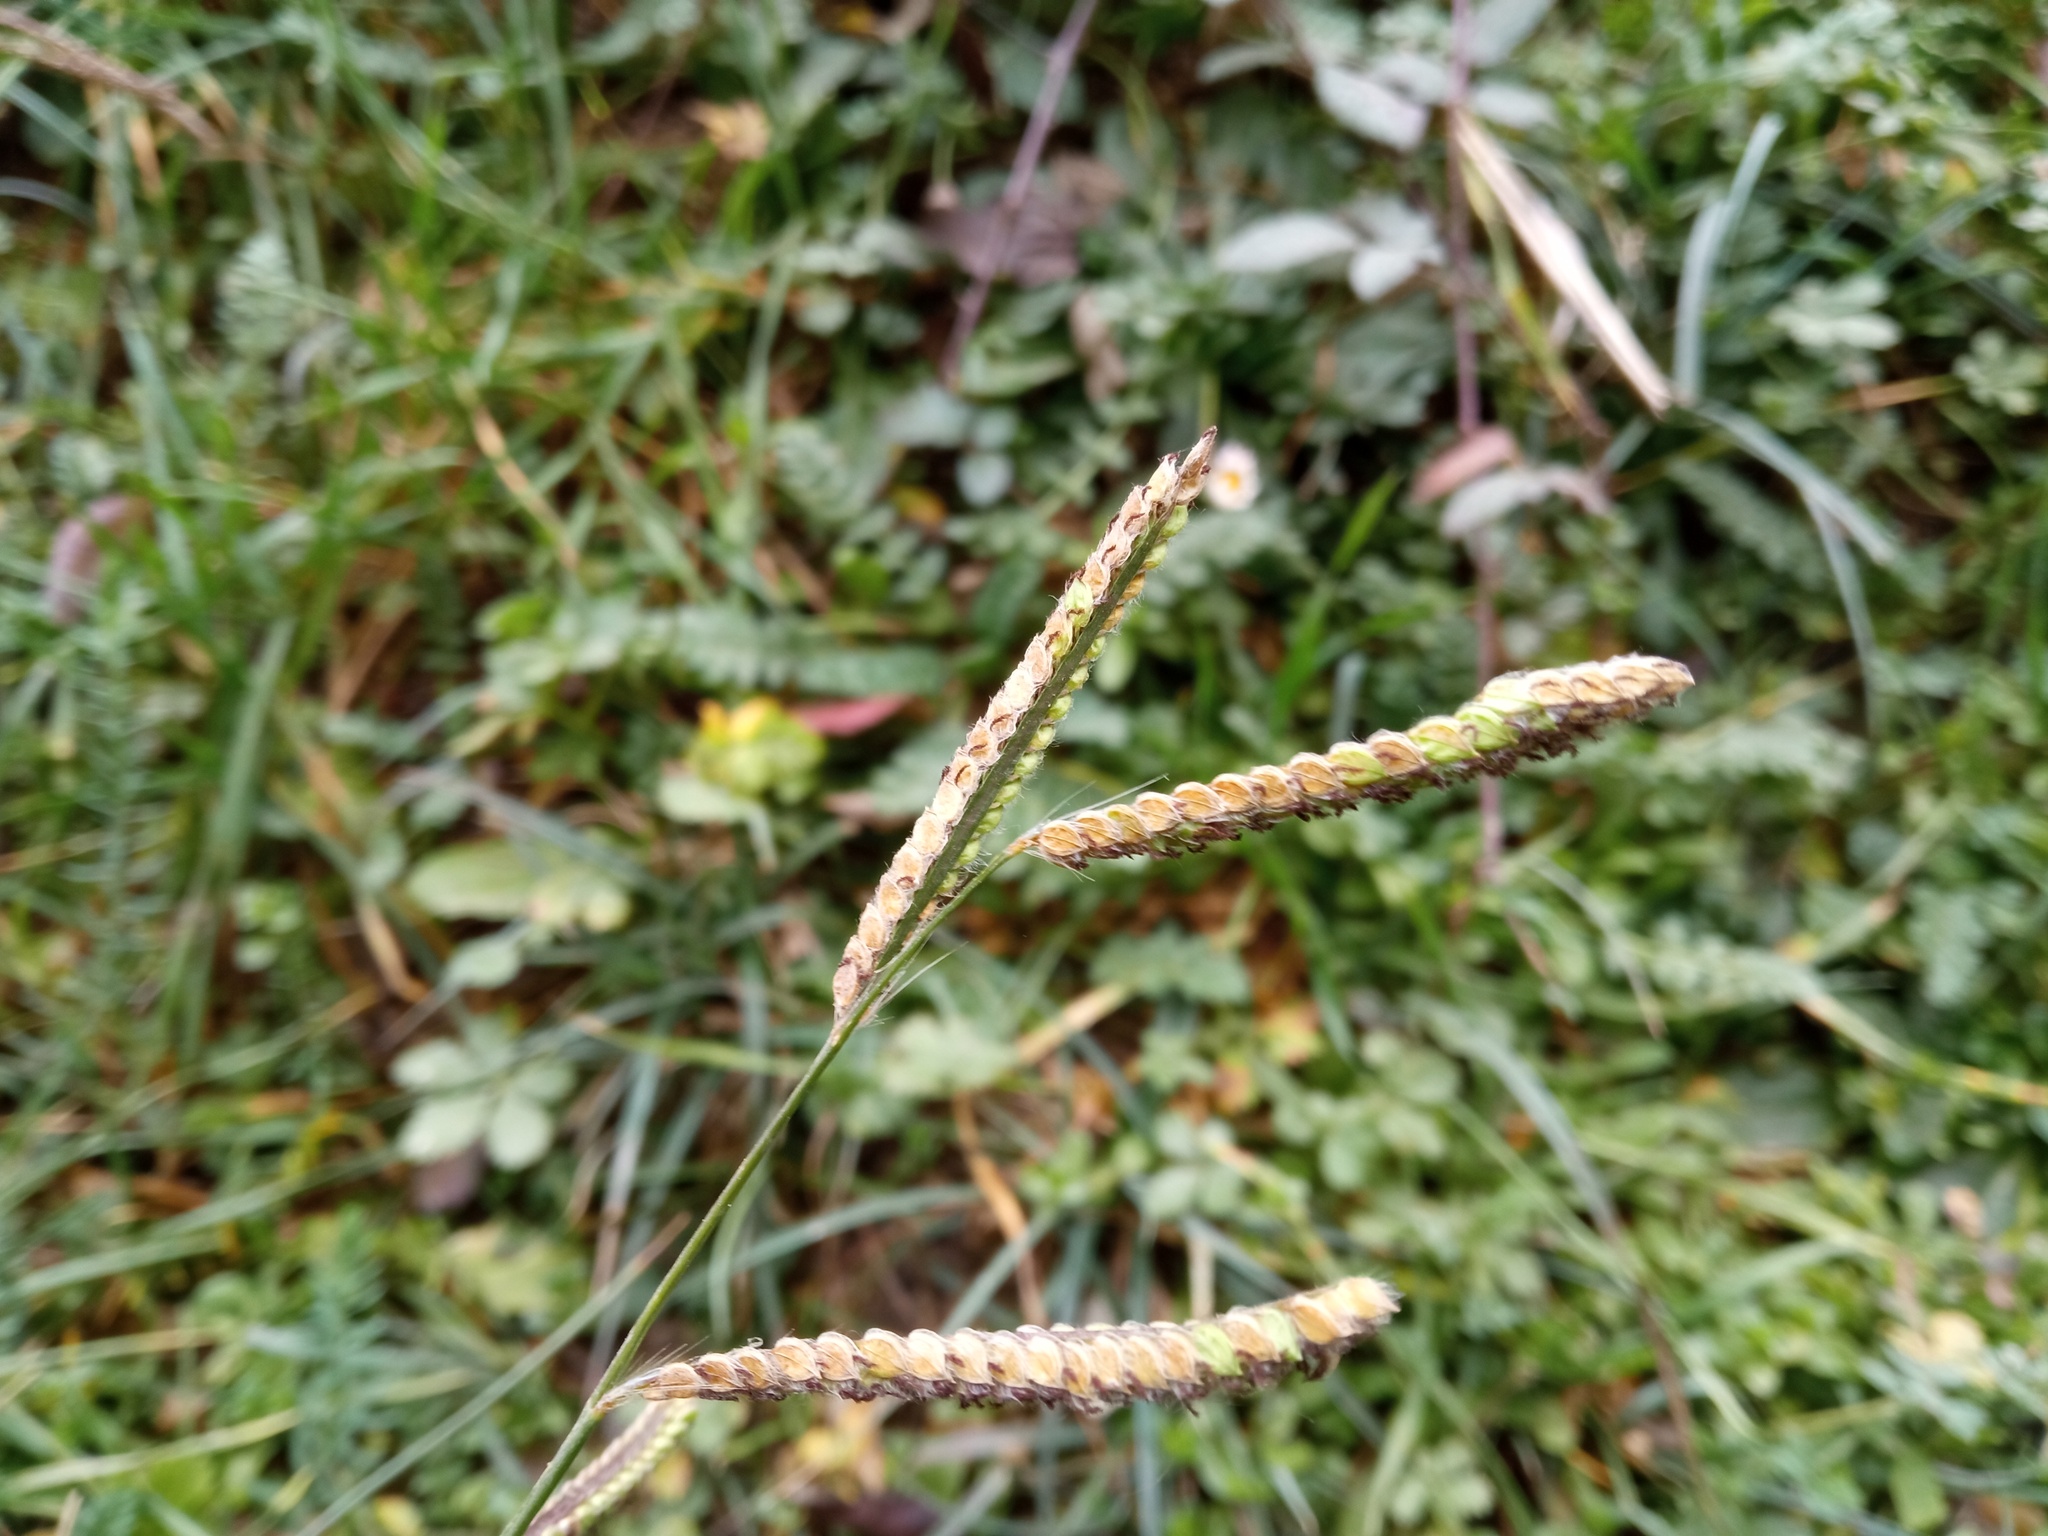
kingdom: Plantae
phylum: Tracheophyta
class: Liliopsida
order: Poales
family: Poaceae
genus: Paspalum
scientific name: Paspalum dilatatum
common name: Dallisgrass
